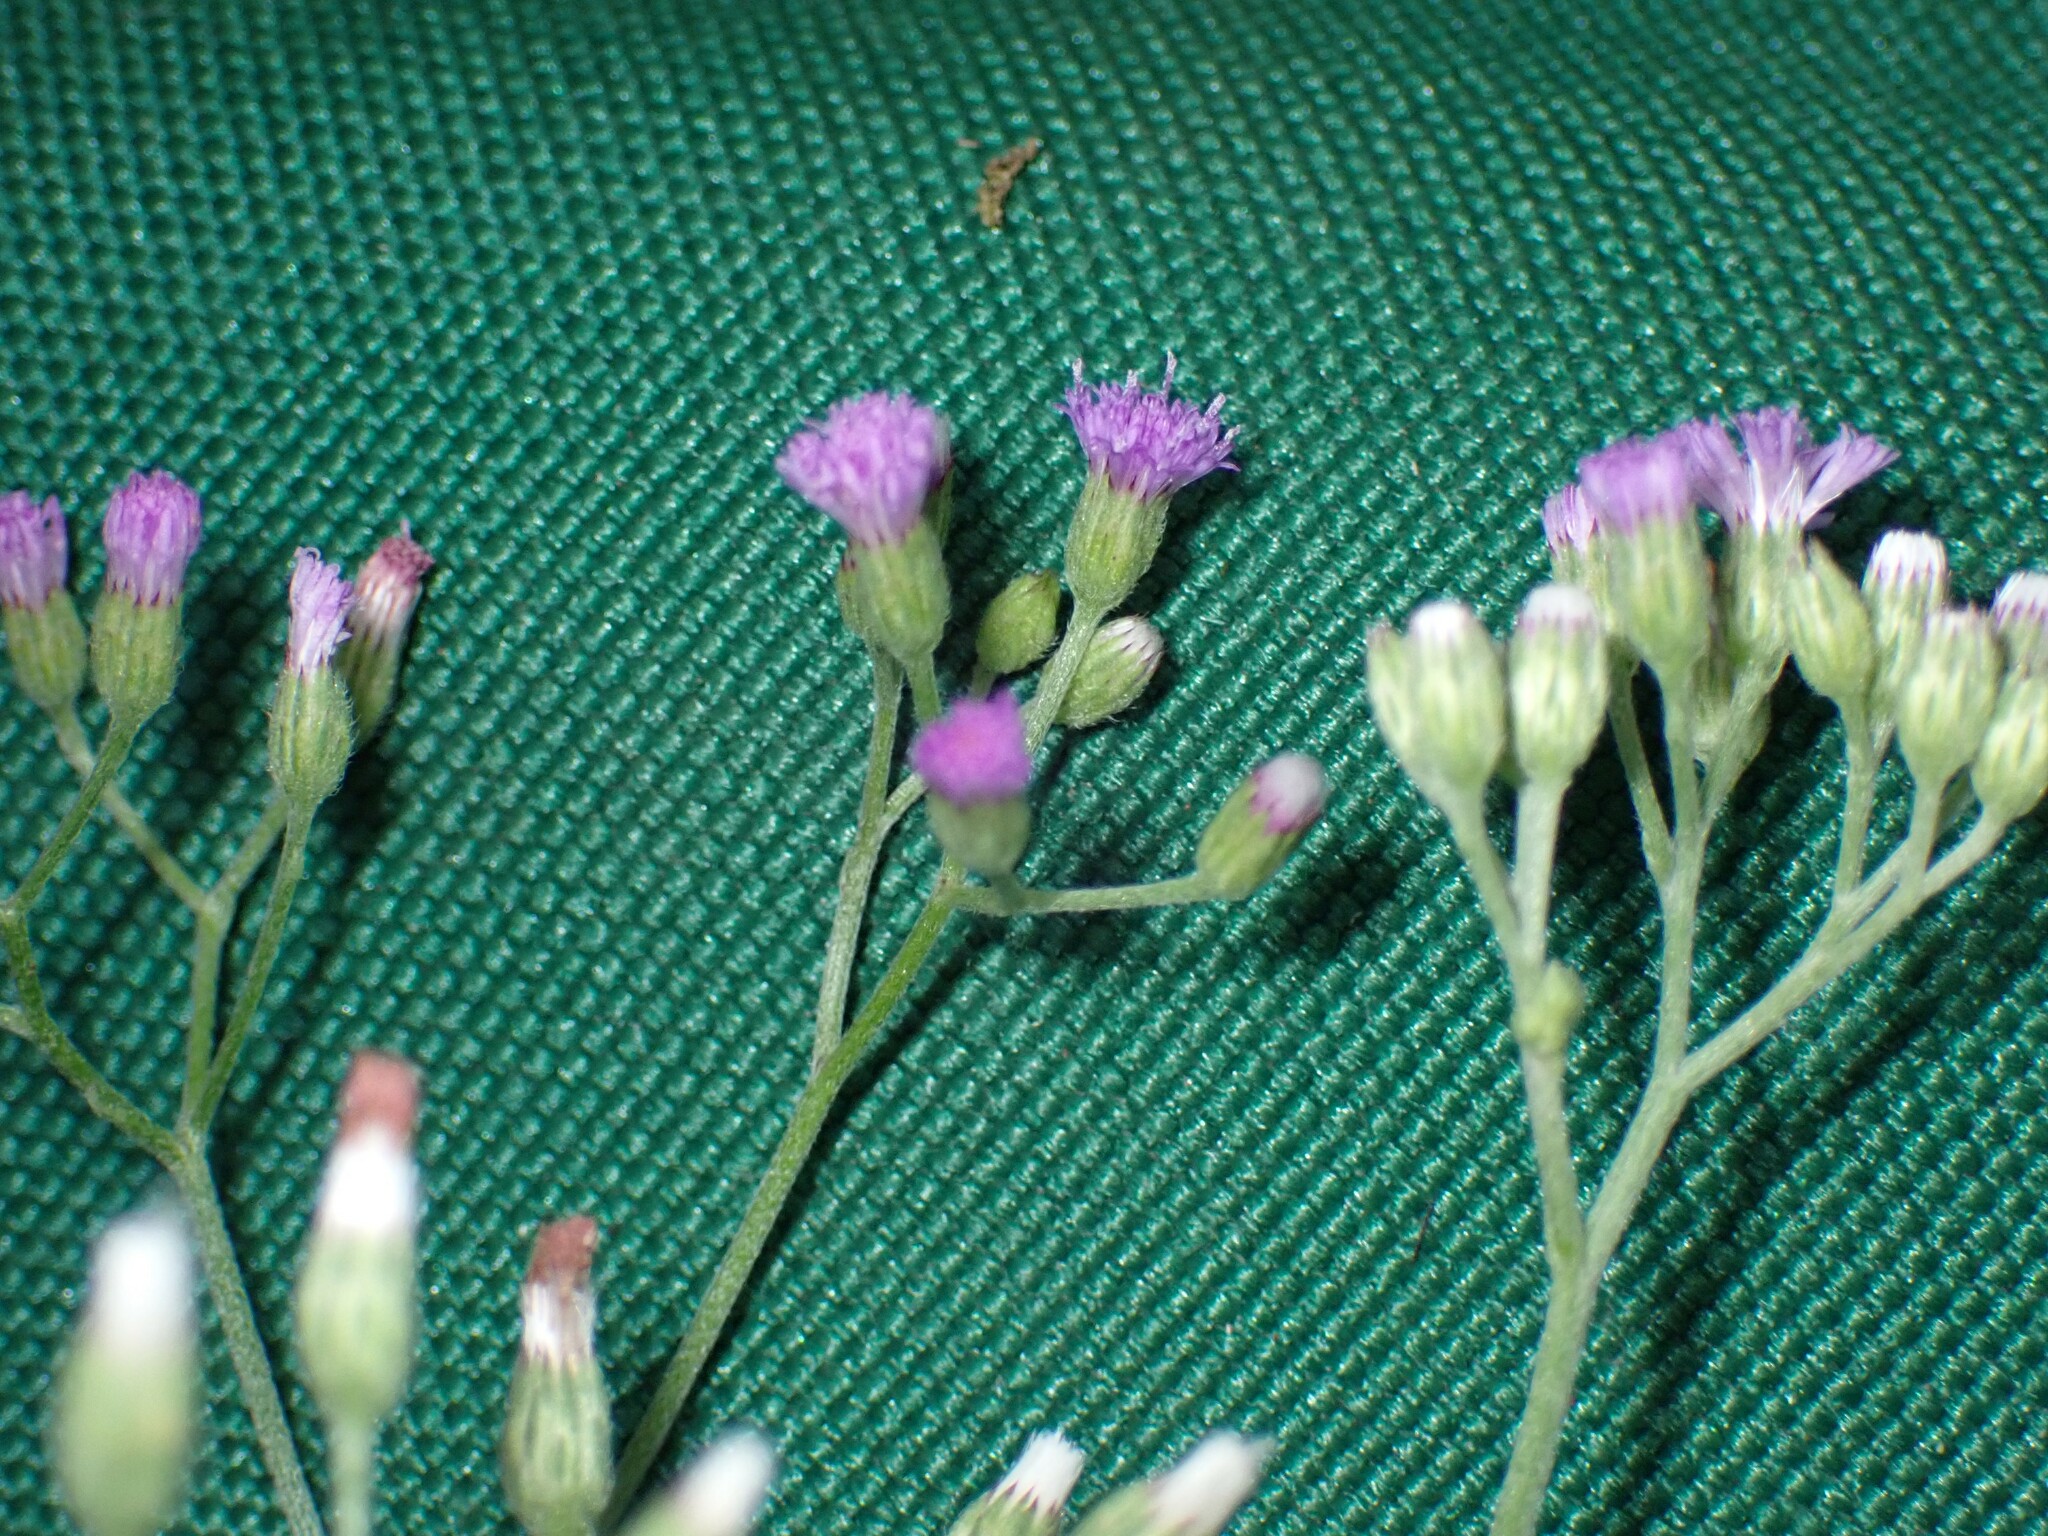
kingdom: Plantae
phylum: Tracheophyta
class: Magnoliopsida
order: Asterales
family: Asteraceae
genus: Cyanthillium
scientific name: Cyanthillium cinereum
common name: Little ironweed
